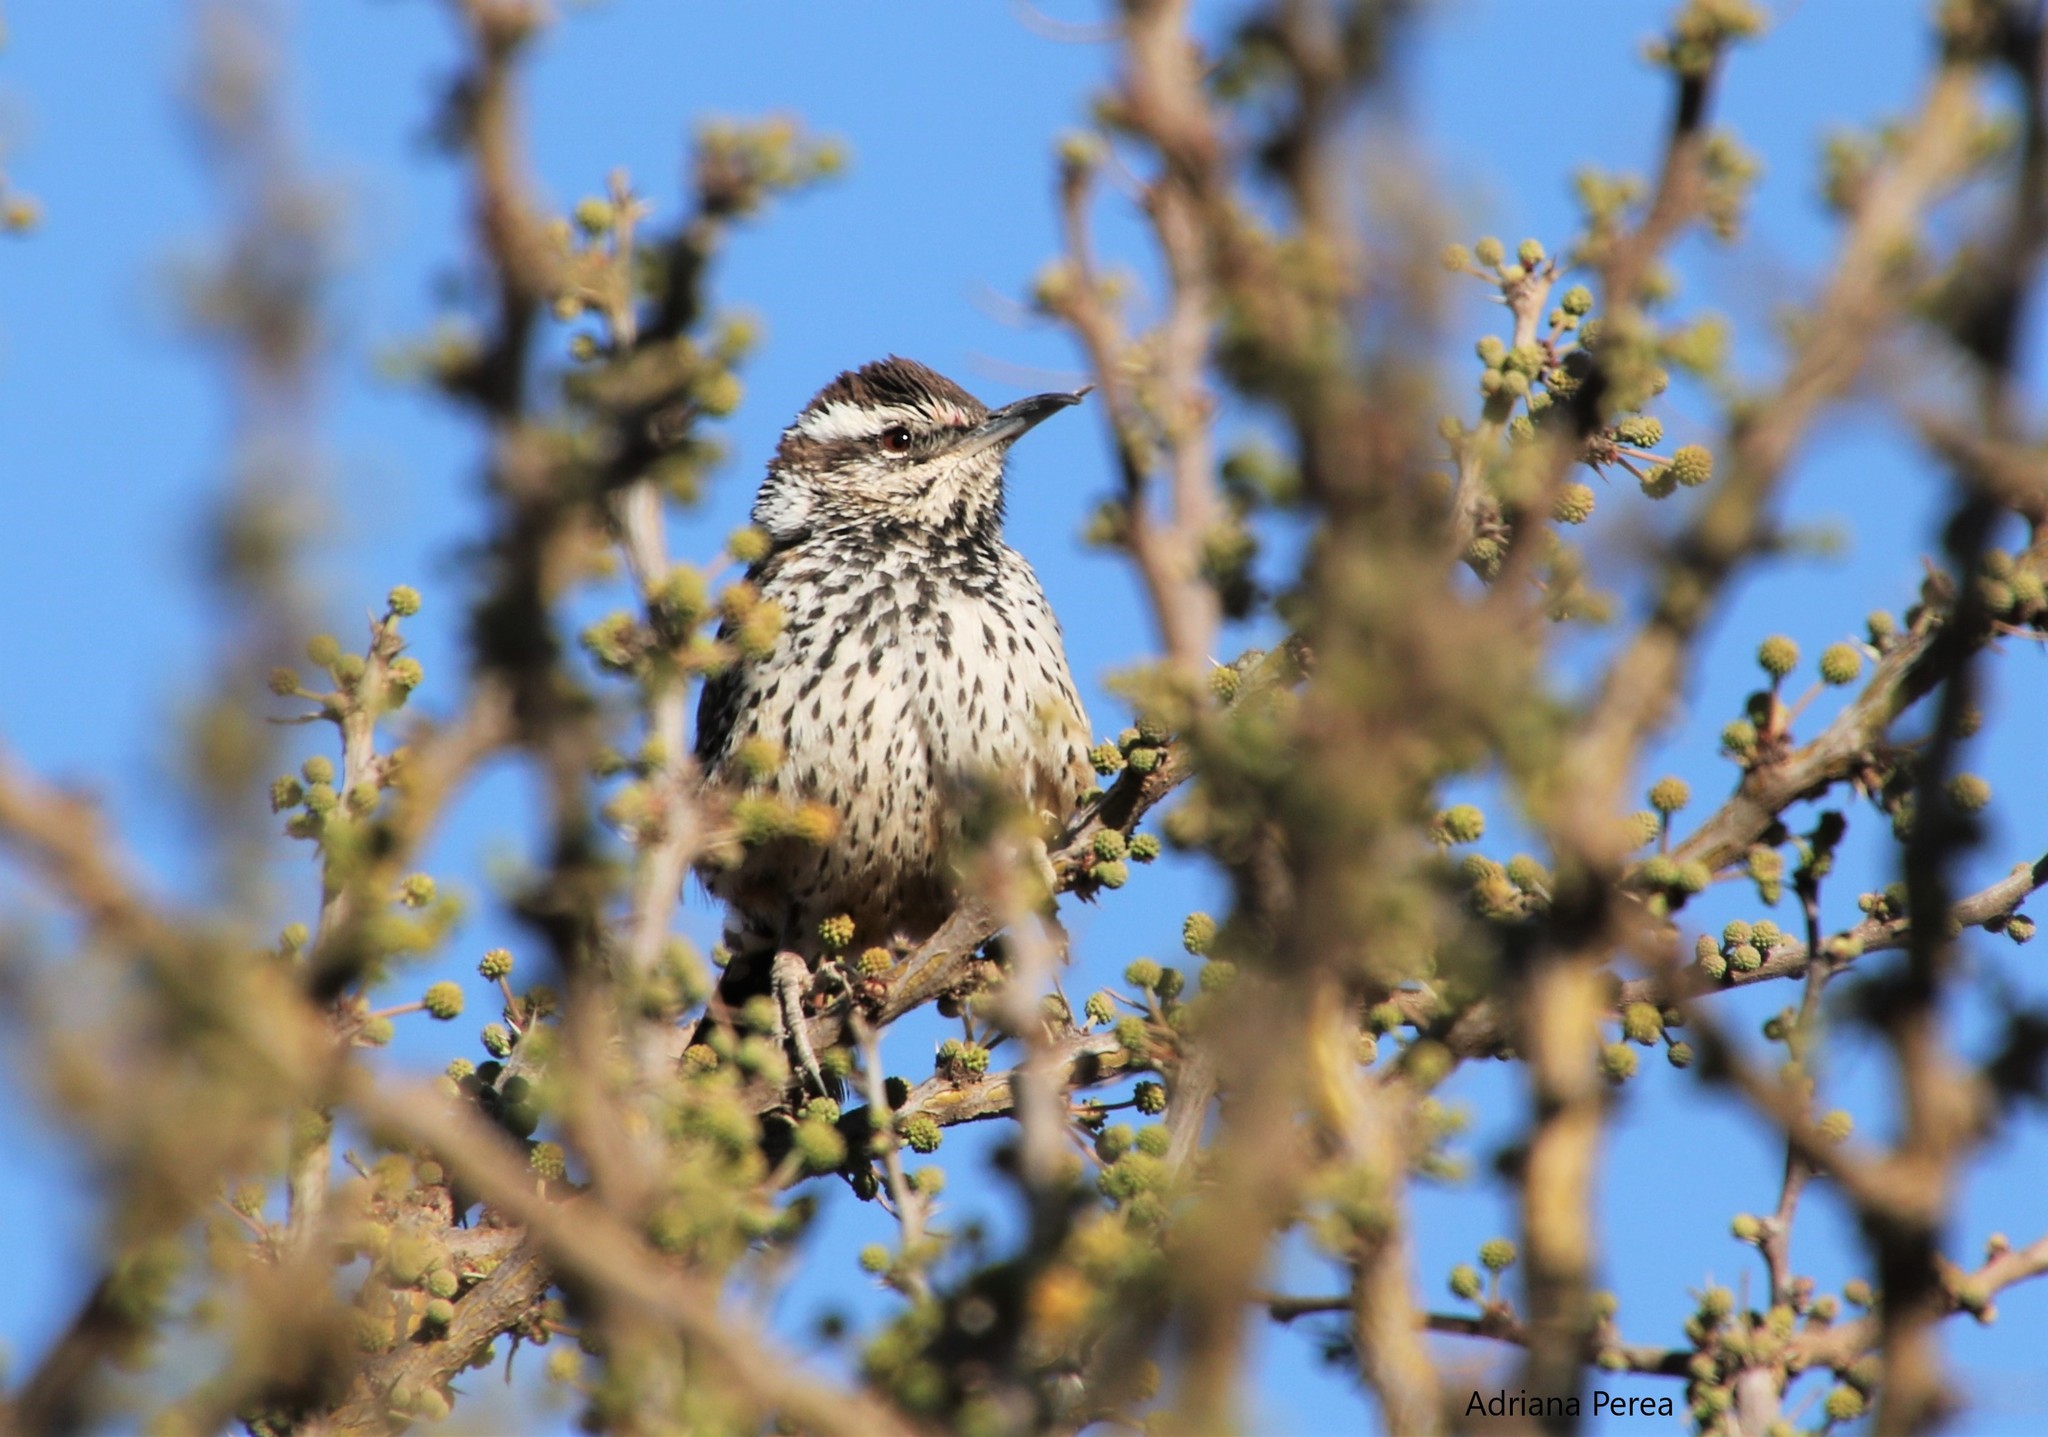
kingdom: Animalia
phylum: Chordata
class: Aves
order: Passeriformes
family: Troglodytidae
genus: Campylorhynchus
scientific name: Campylorhynchus brunneicapillus
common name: Cactus wren
